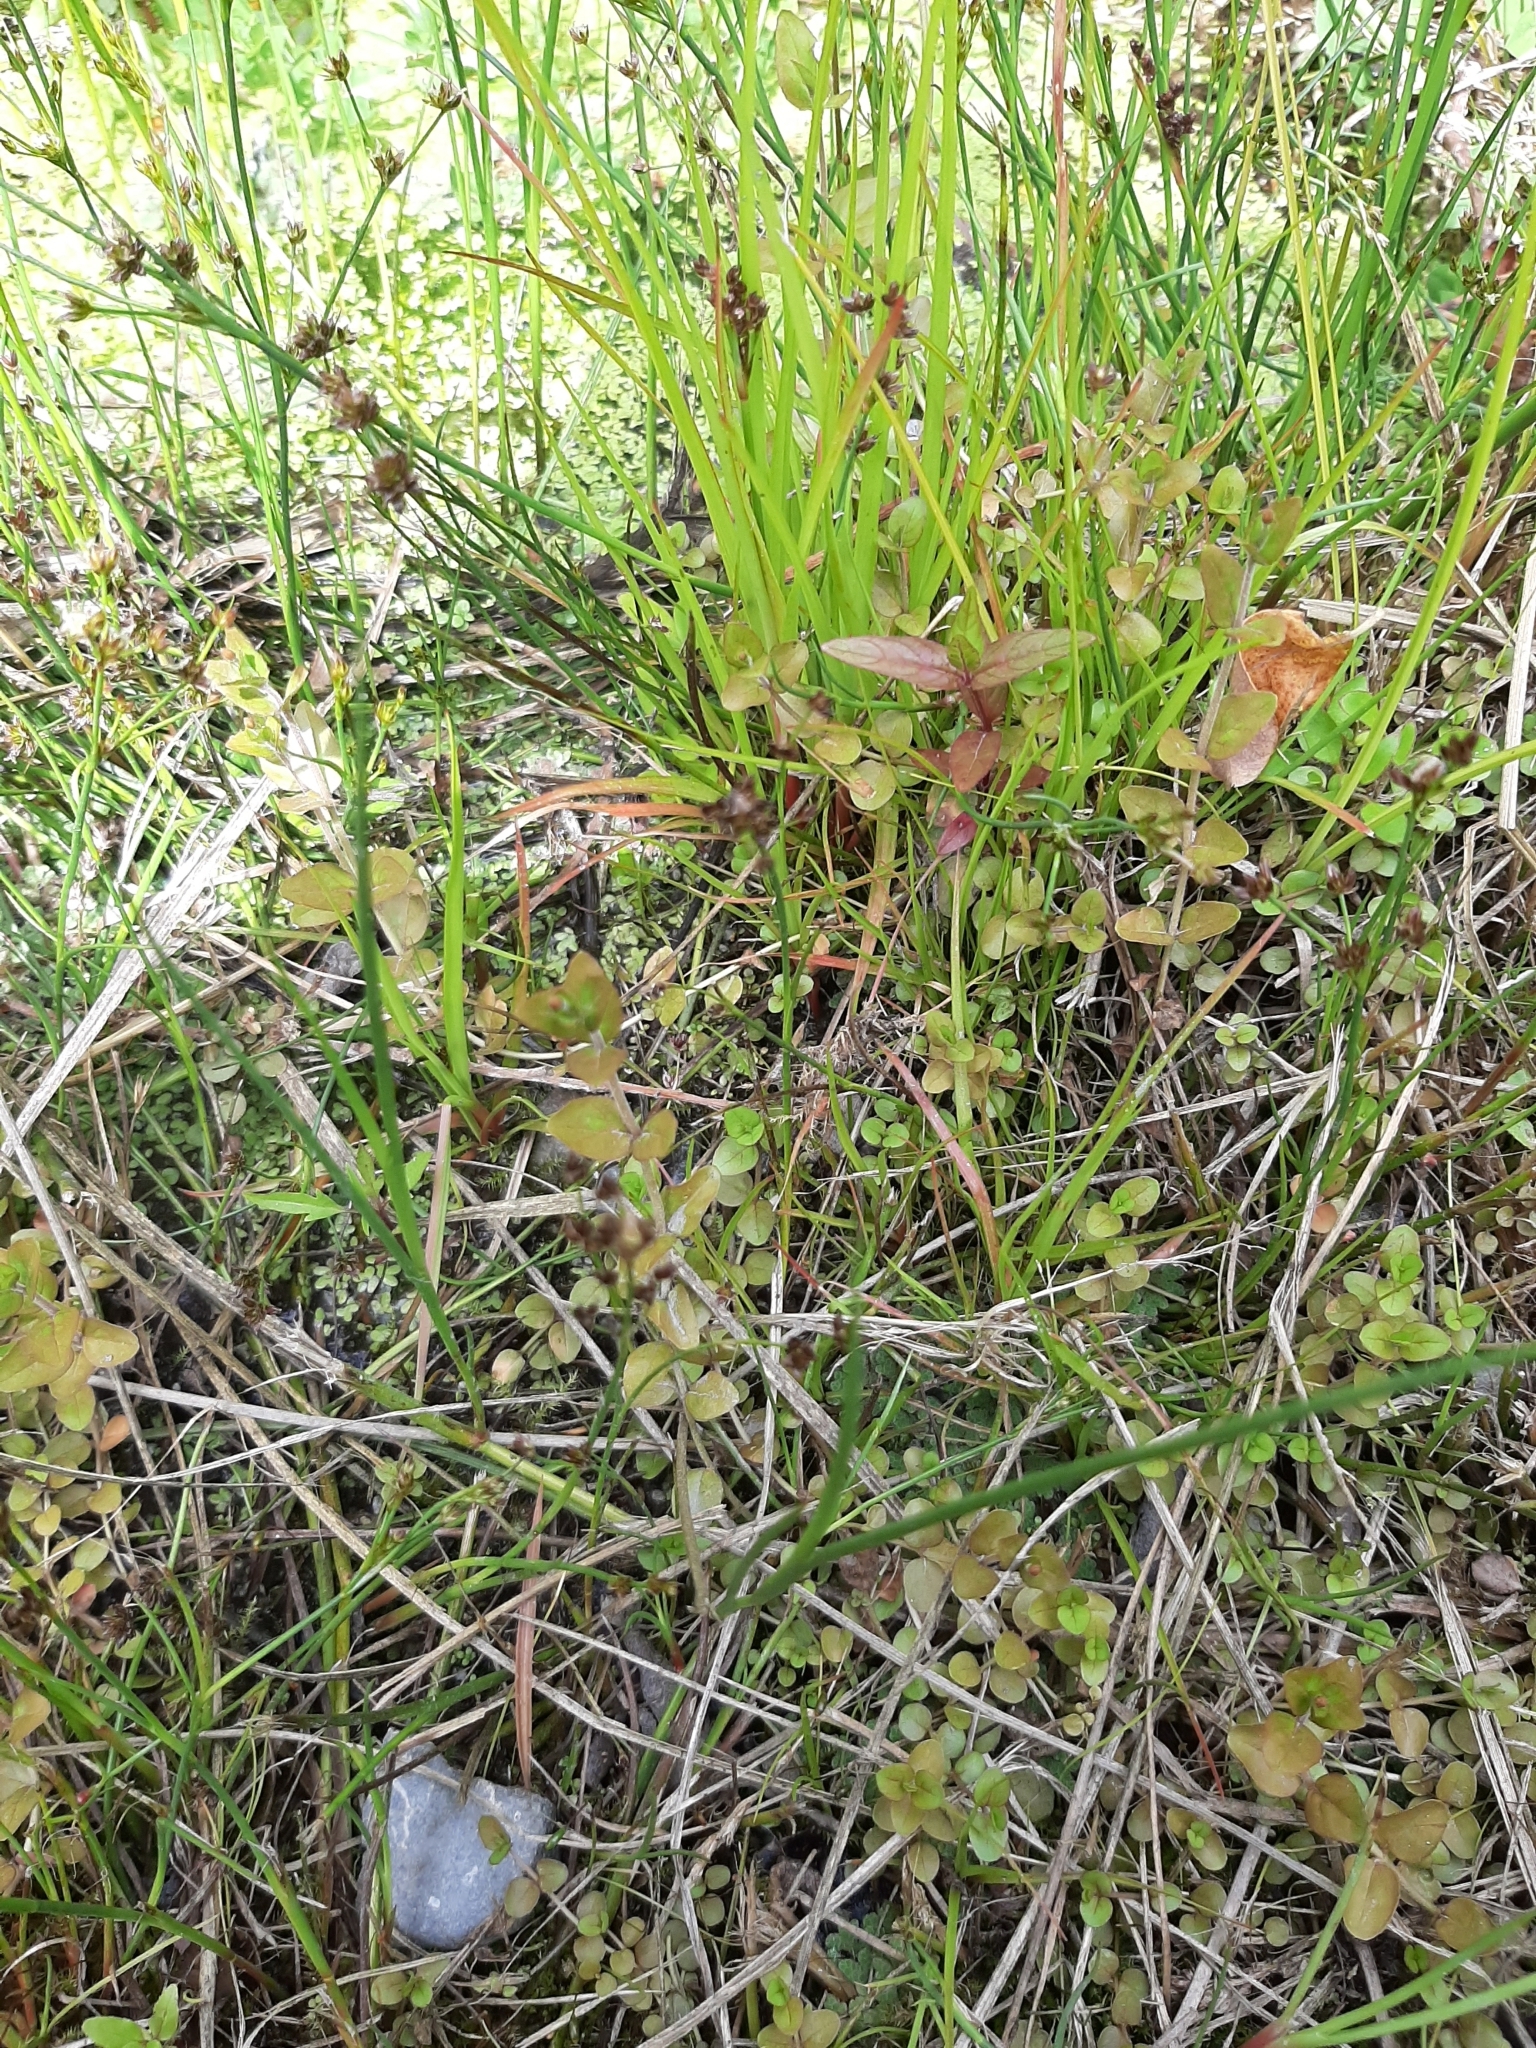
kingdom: Plantae
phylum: Tracheophyta
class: Magnoliopsida
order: Myrtales
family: Onagraceae
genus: Epilobium
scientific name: Epilobium insulare
